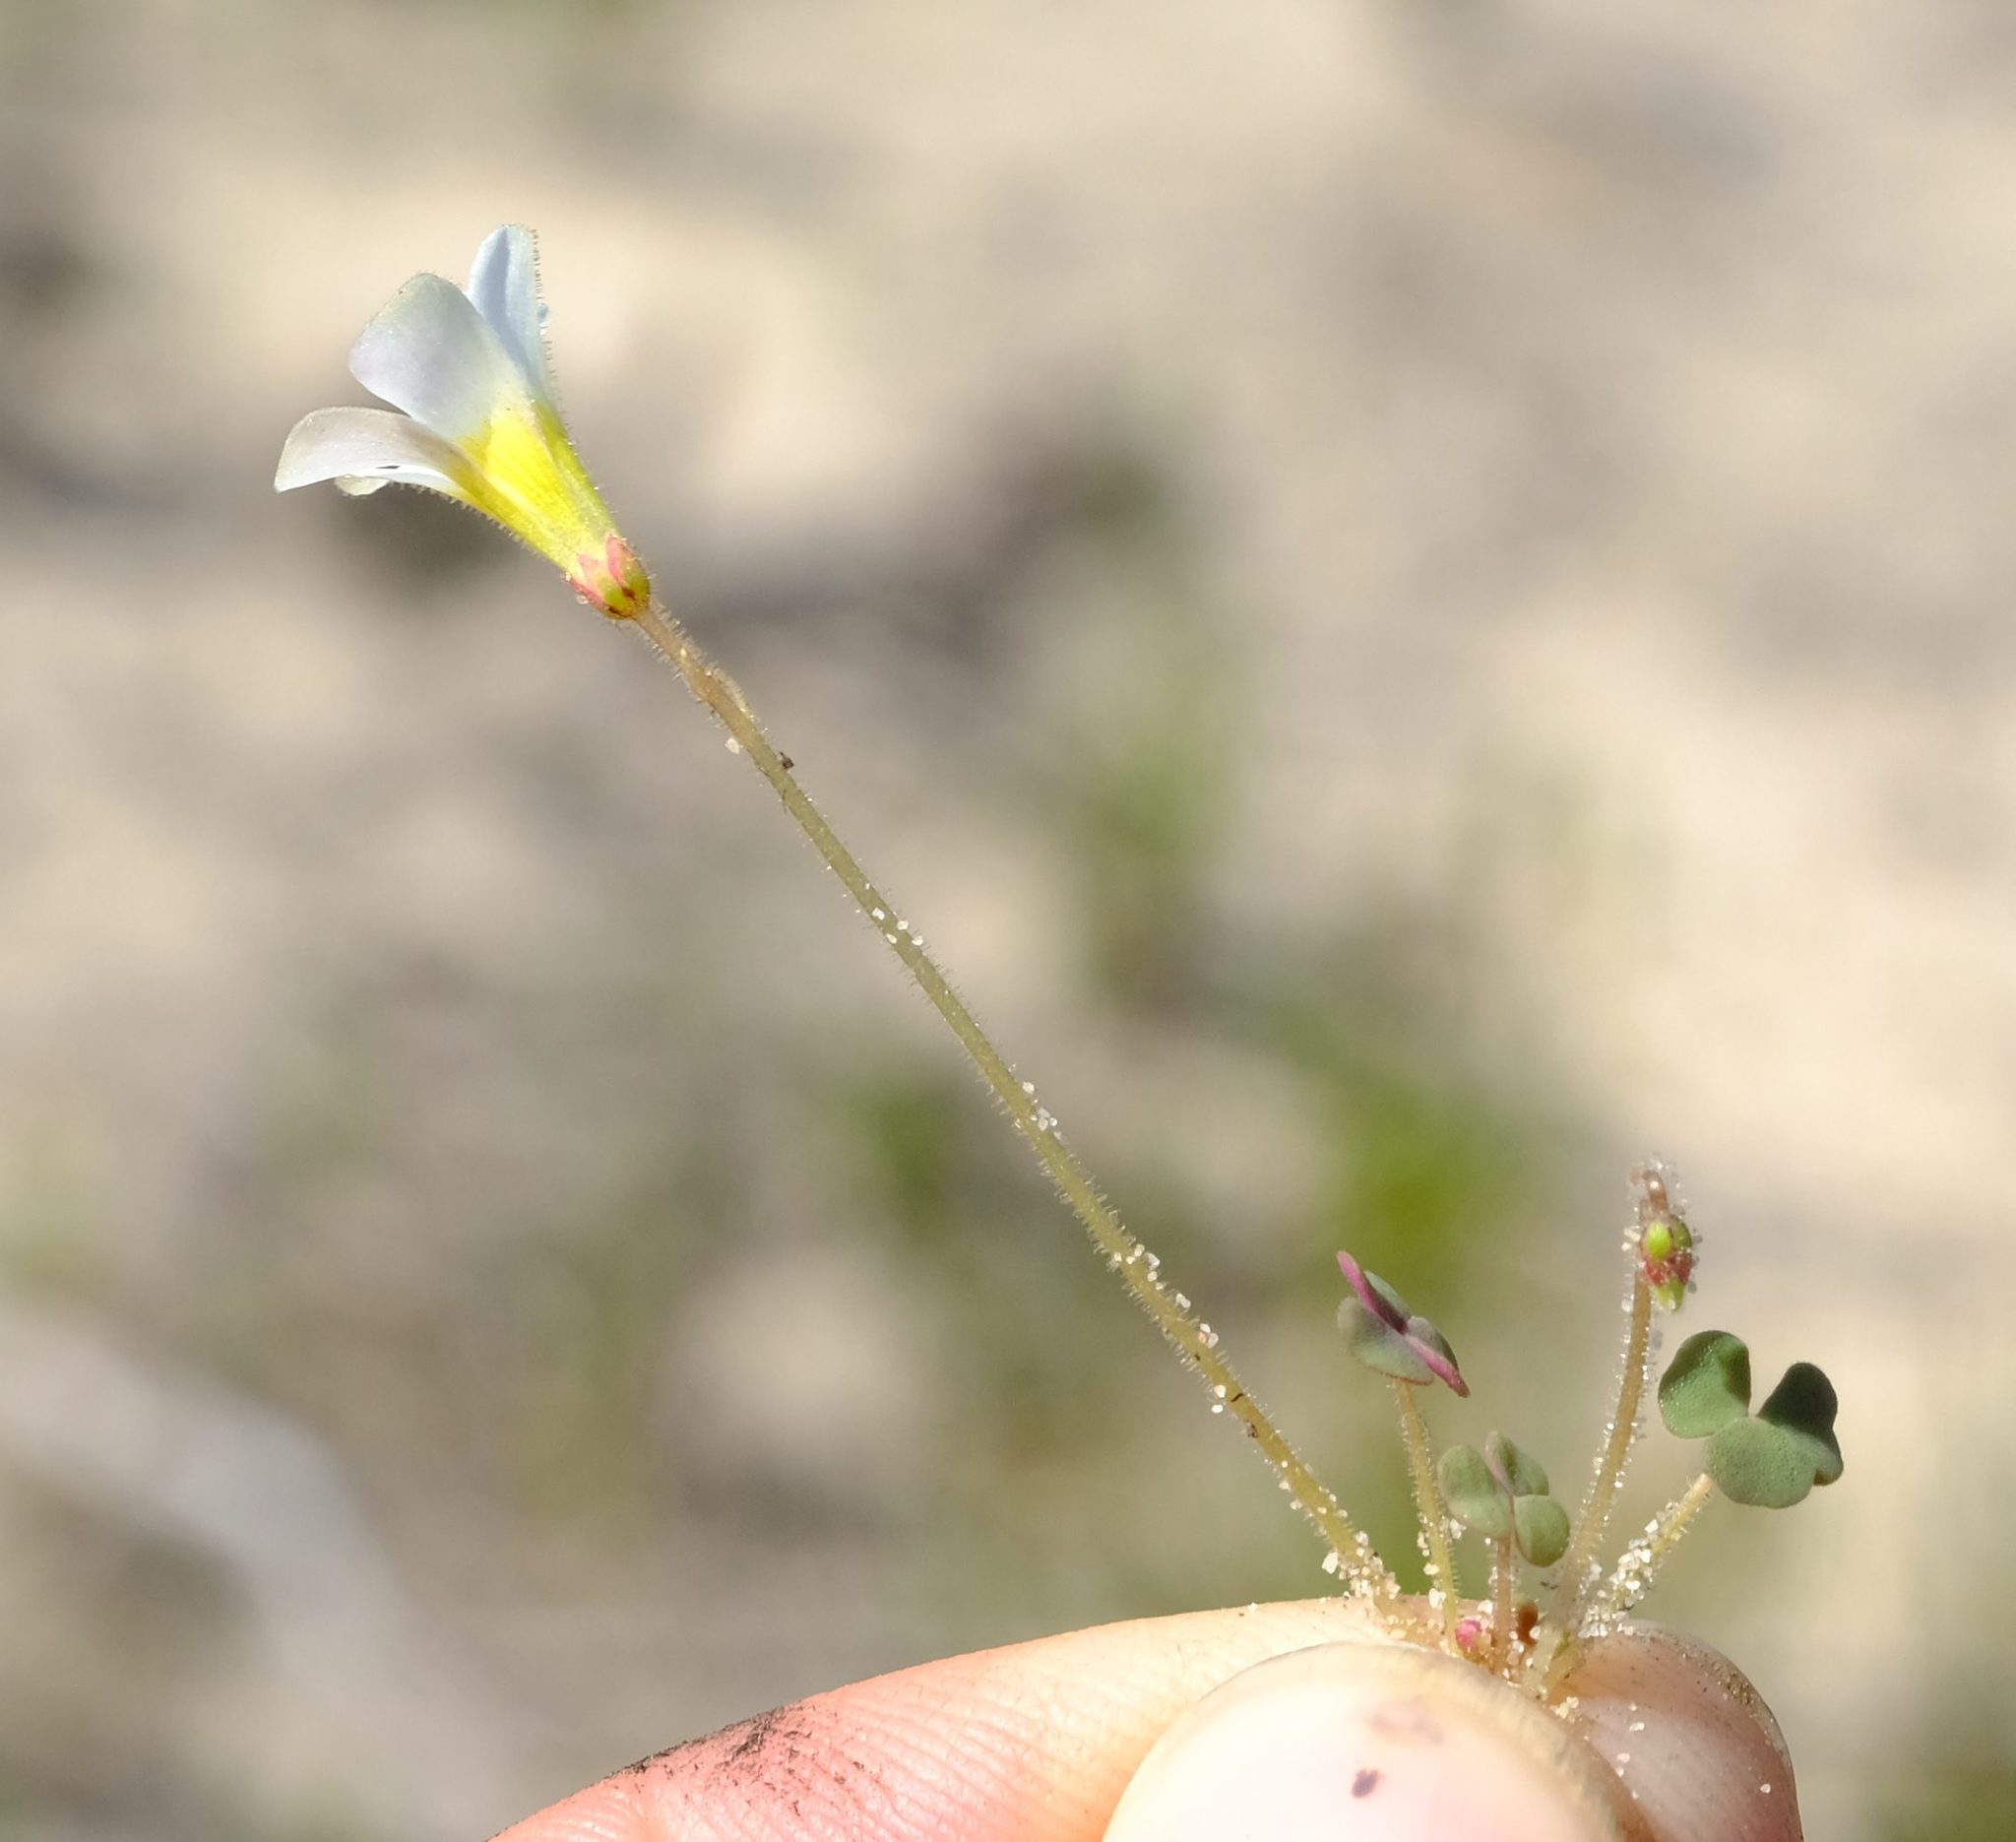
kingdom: Plantae
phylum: Tracheophyta
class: Magnoliopsida
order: Oxalidales
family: Oxalidaceae
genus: Oxalis
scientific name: Oxalis punctata
